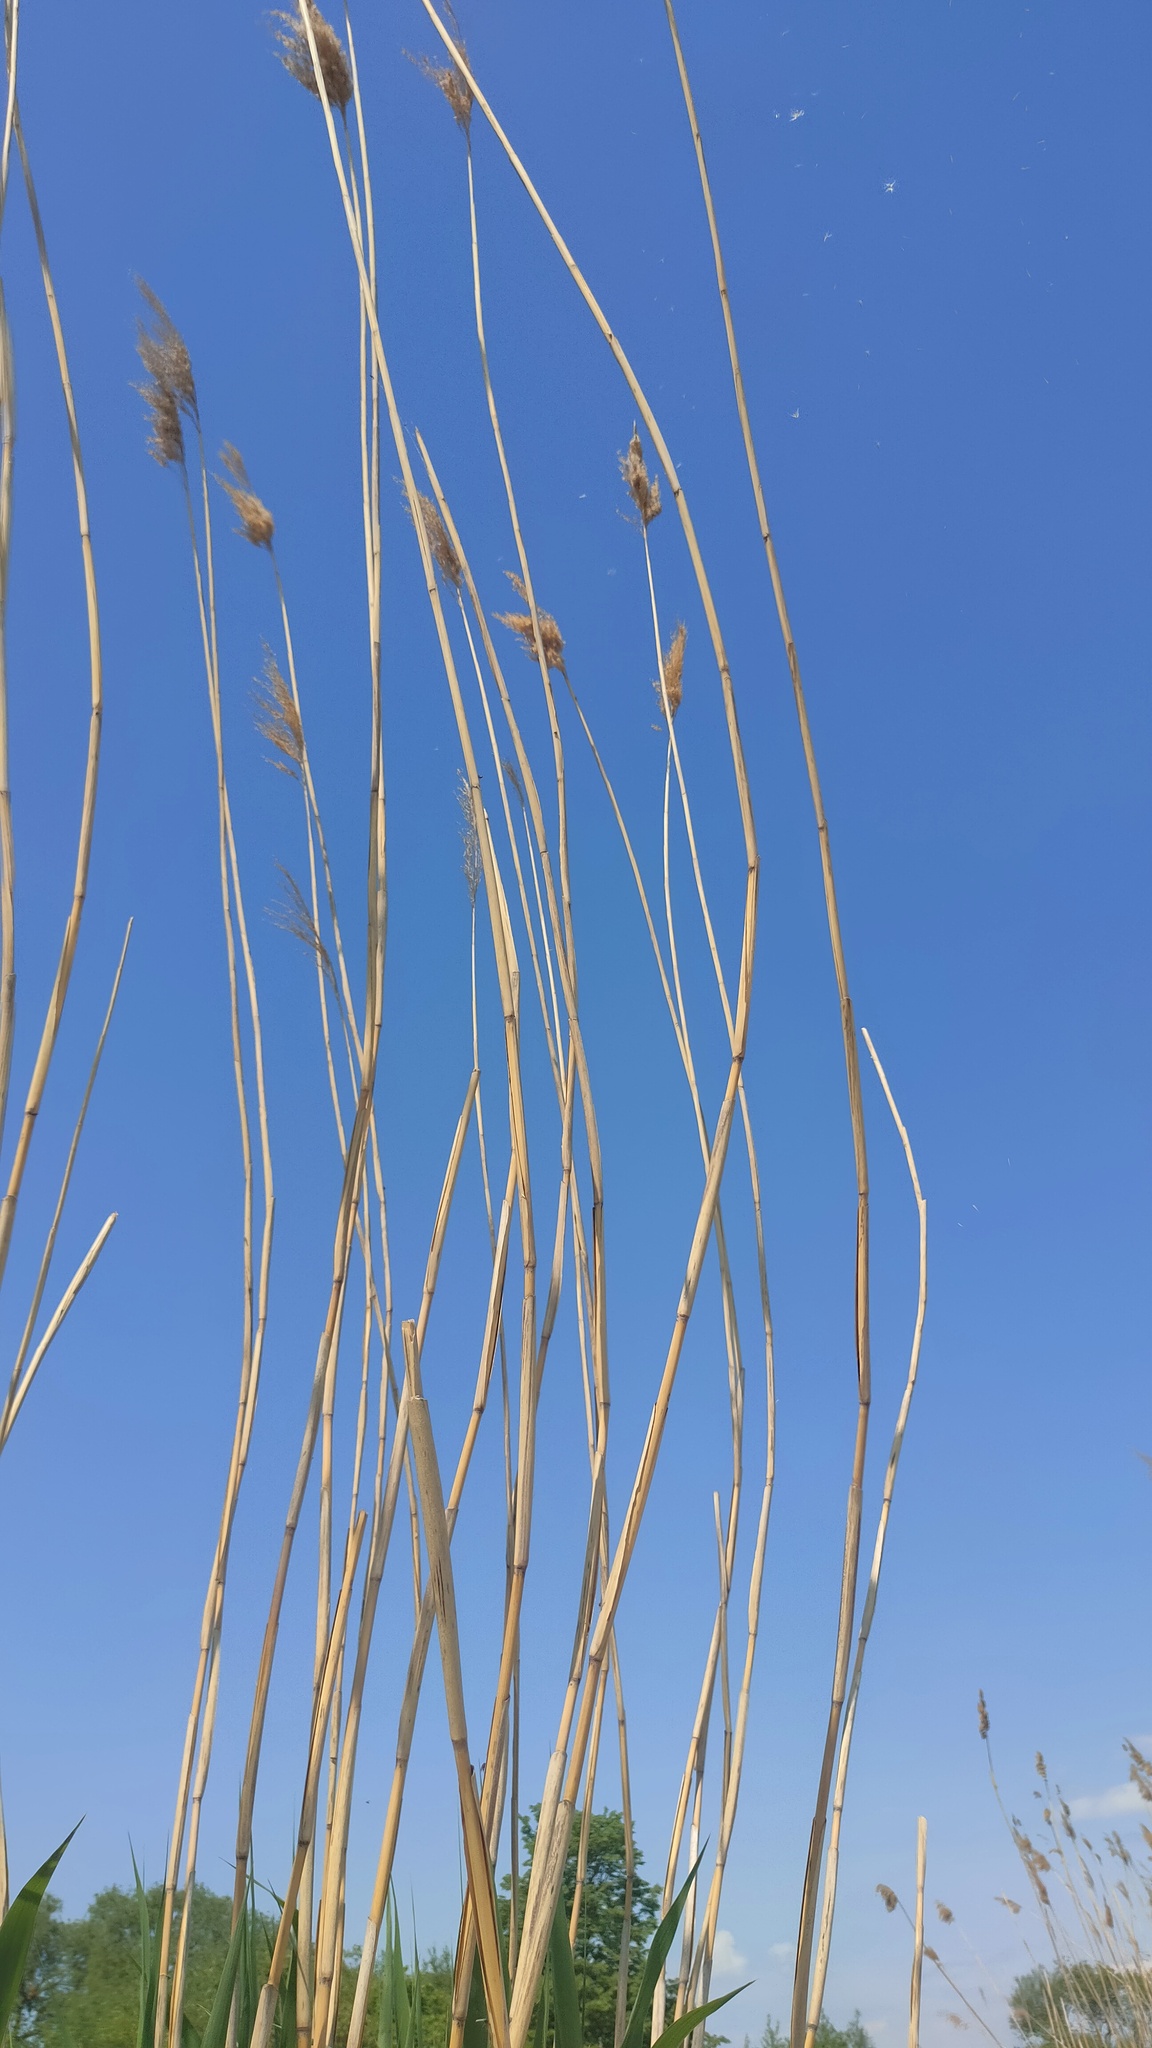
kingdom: Plantae
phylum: Tracheophyta
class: Liliopsida
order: Poales
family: Poaceae
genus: Phragmites
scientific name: Phragmites australis
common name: Common reed
